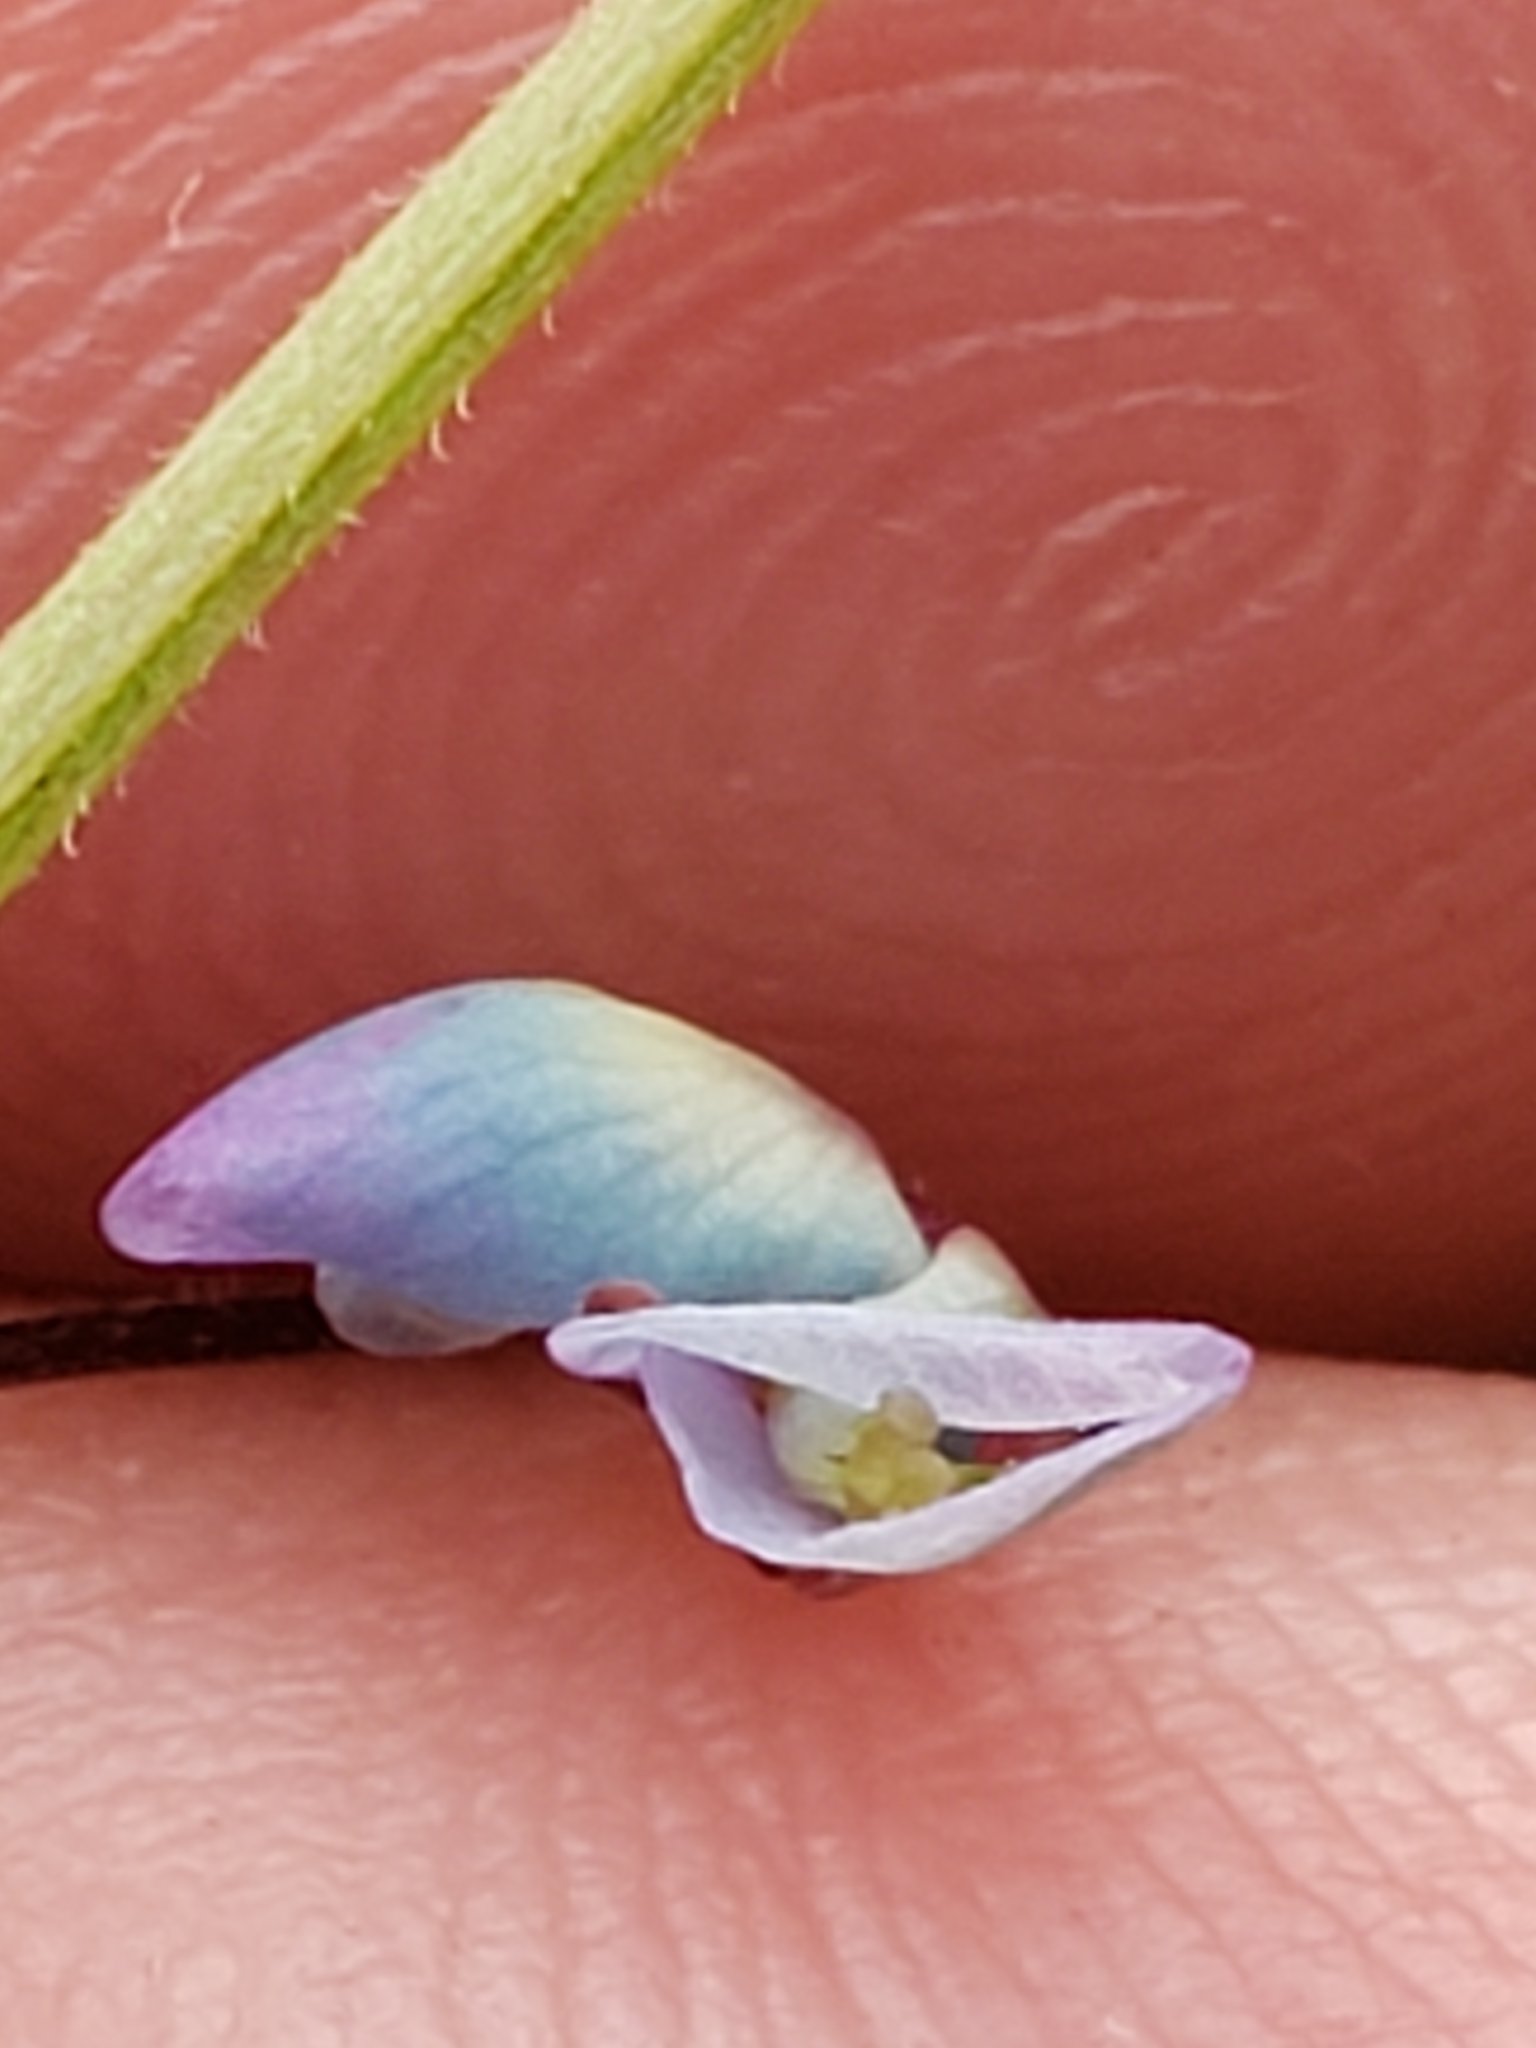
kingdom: Plantae
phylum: Tracheophyta
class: Magnoliopsida
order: Fabales
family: Fabaceae
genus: Desmodium
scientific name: Desmodium marilandicum
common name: Maryland tick-trefoil
